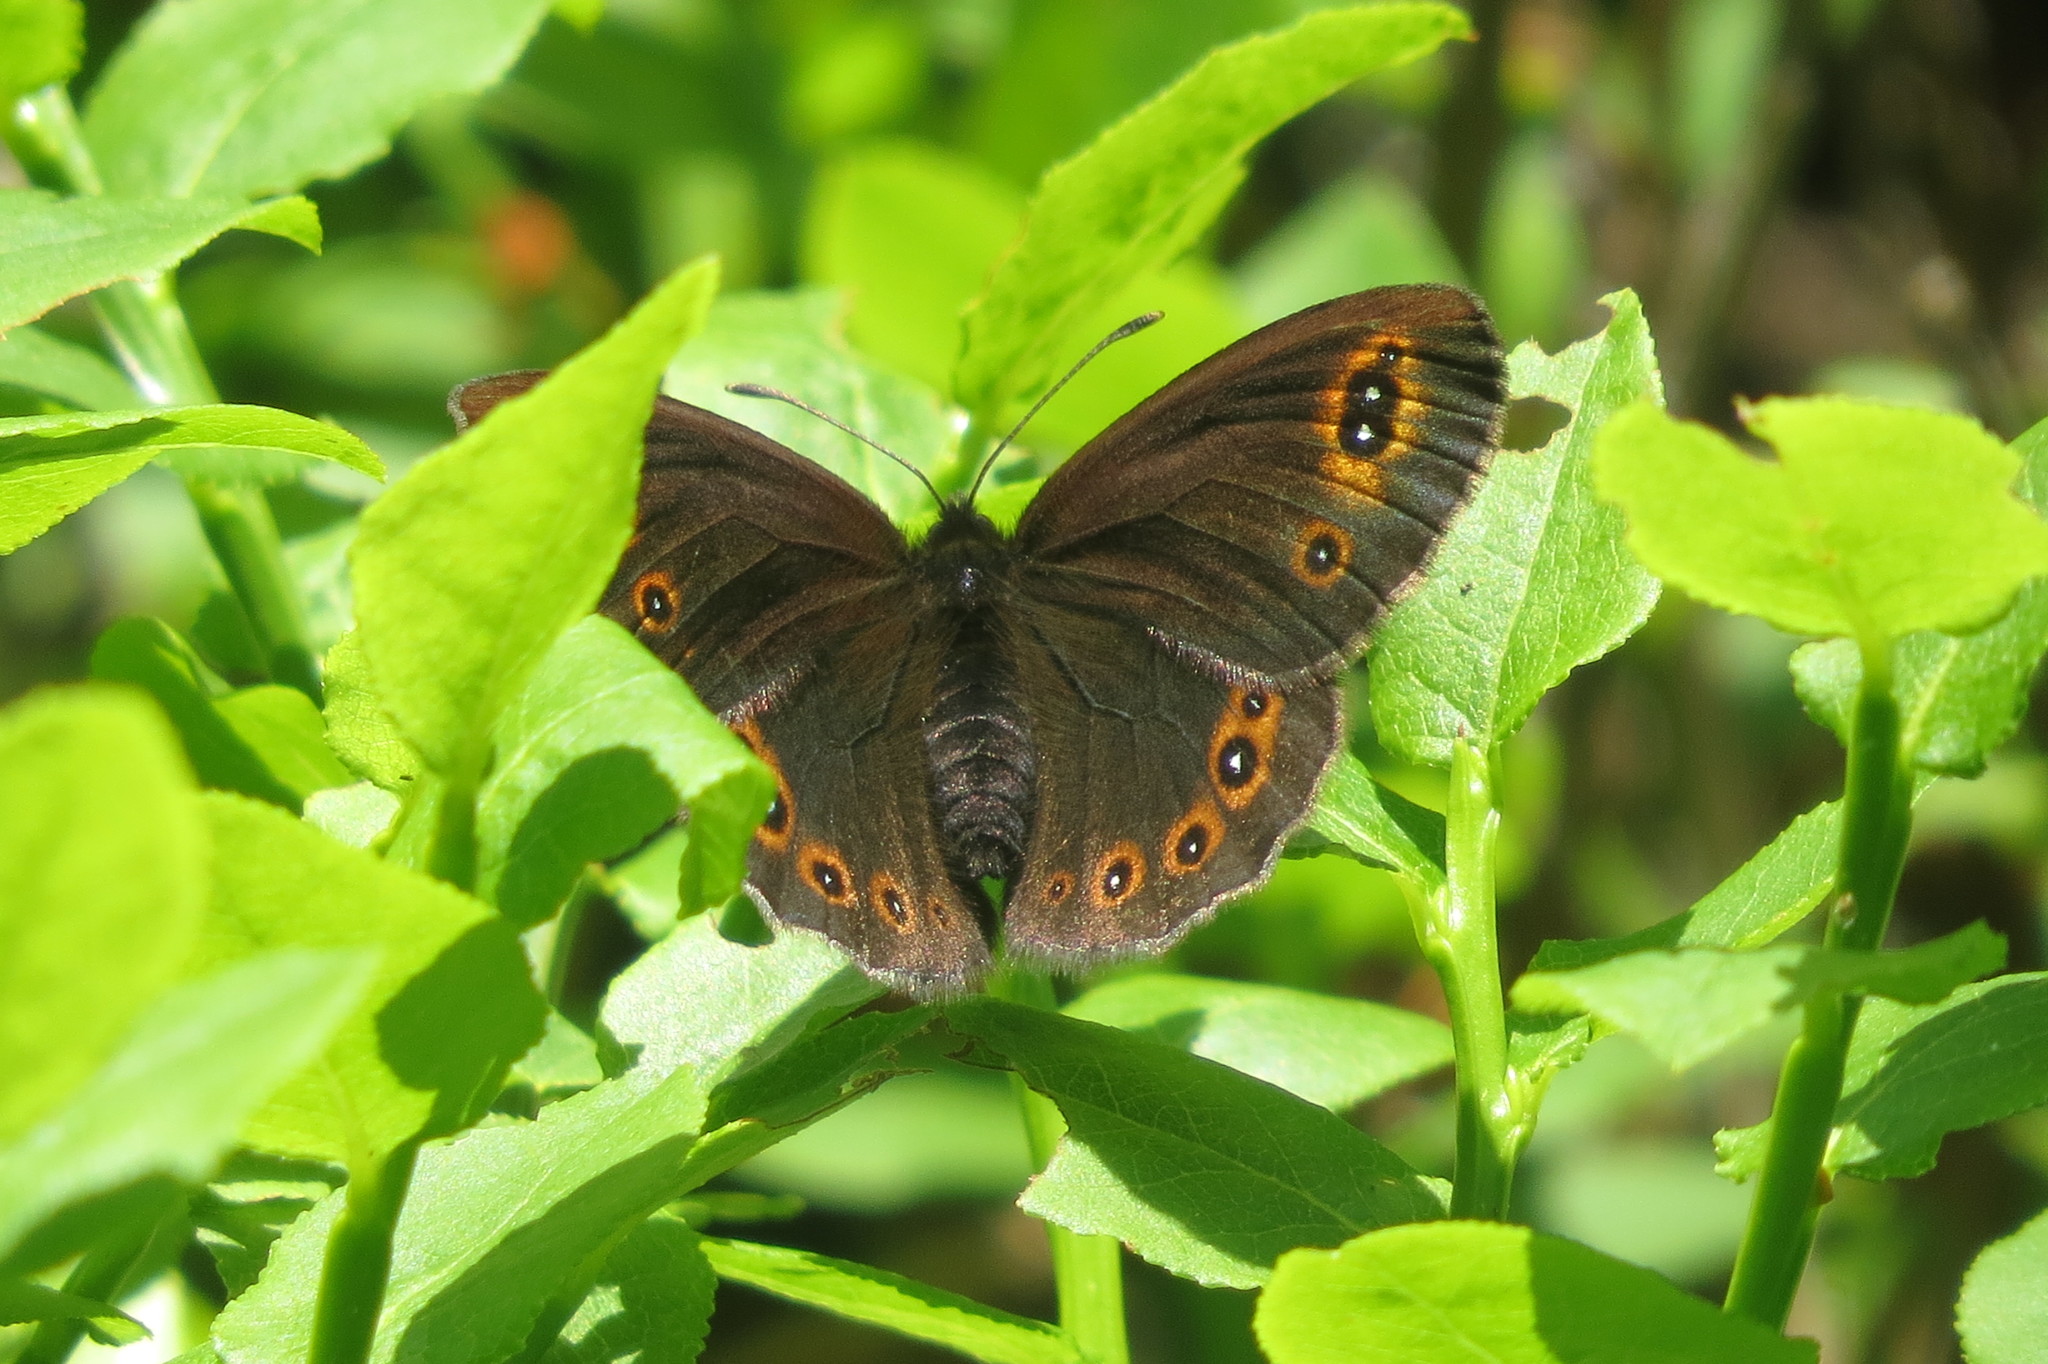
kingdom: Animalia
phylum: Arthropoda
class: Insecta
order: Lepidoptera
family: Nymphalidae
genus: Erebia
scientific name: Erebia medusa
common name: Woodland ringlet
